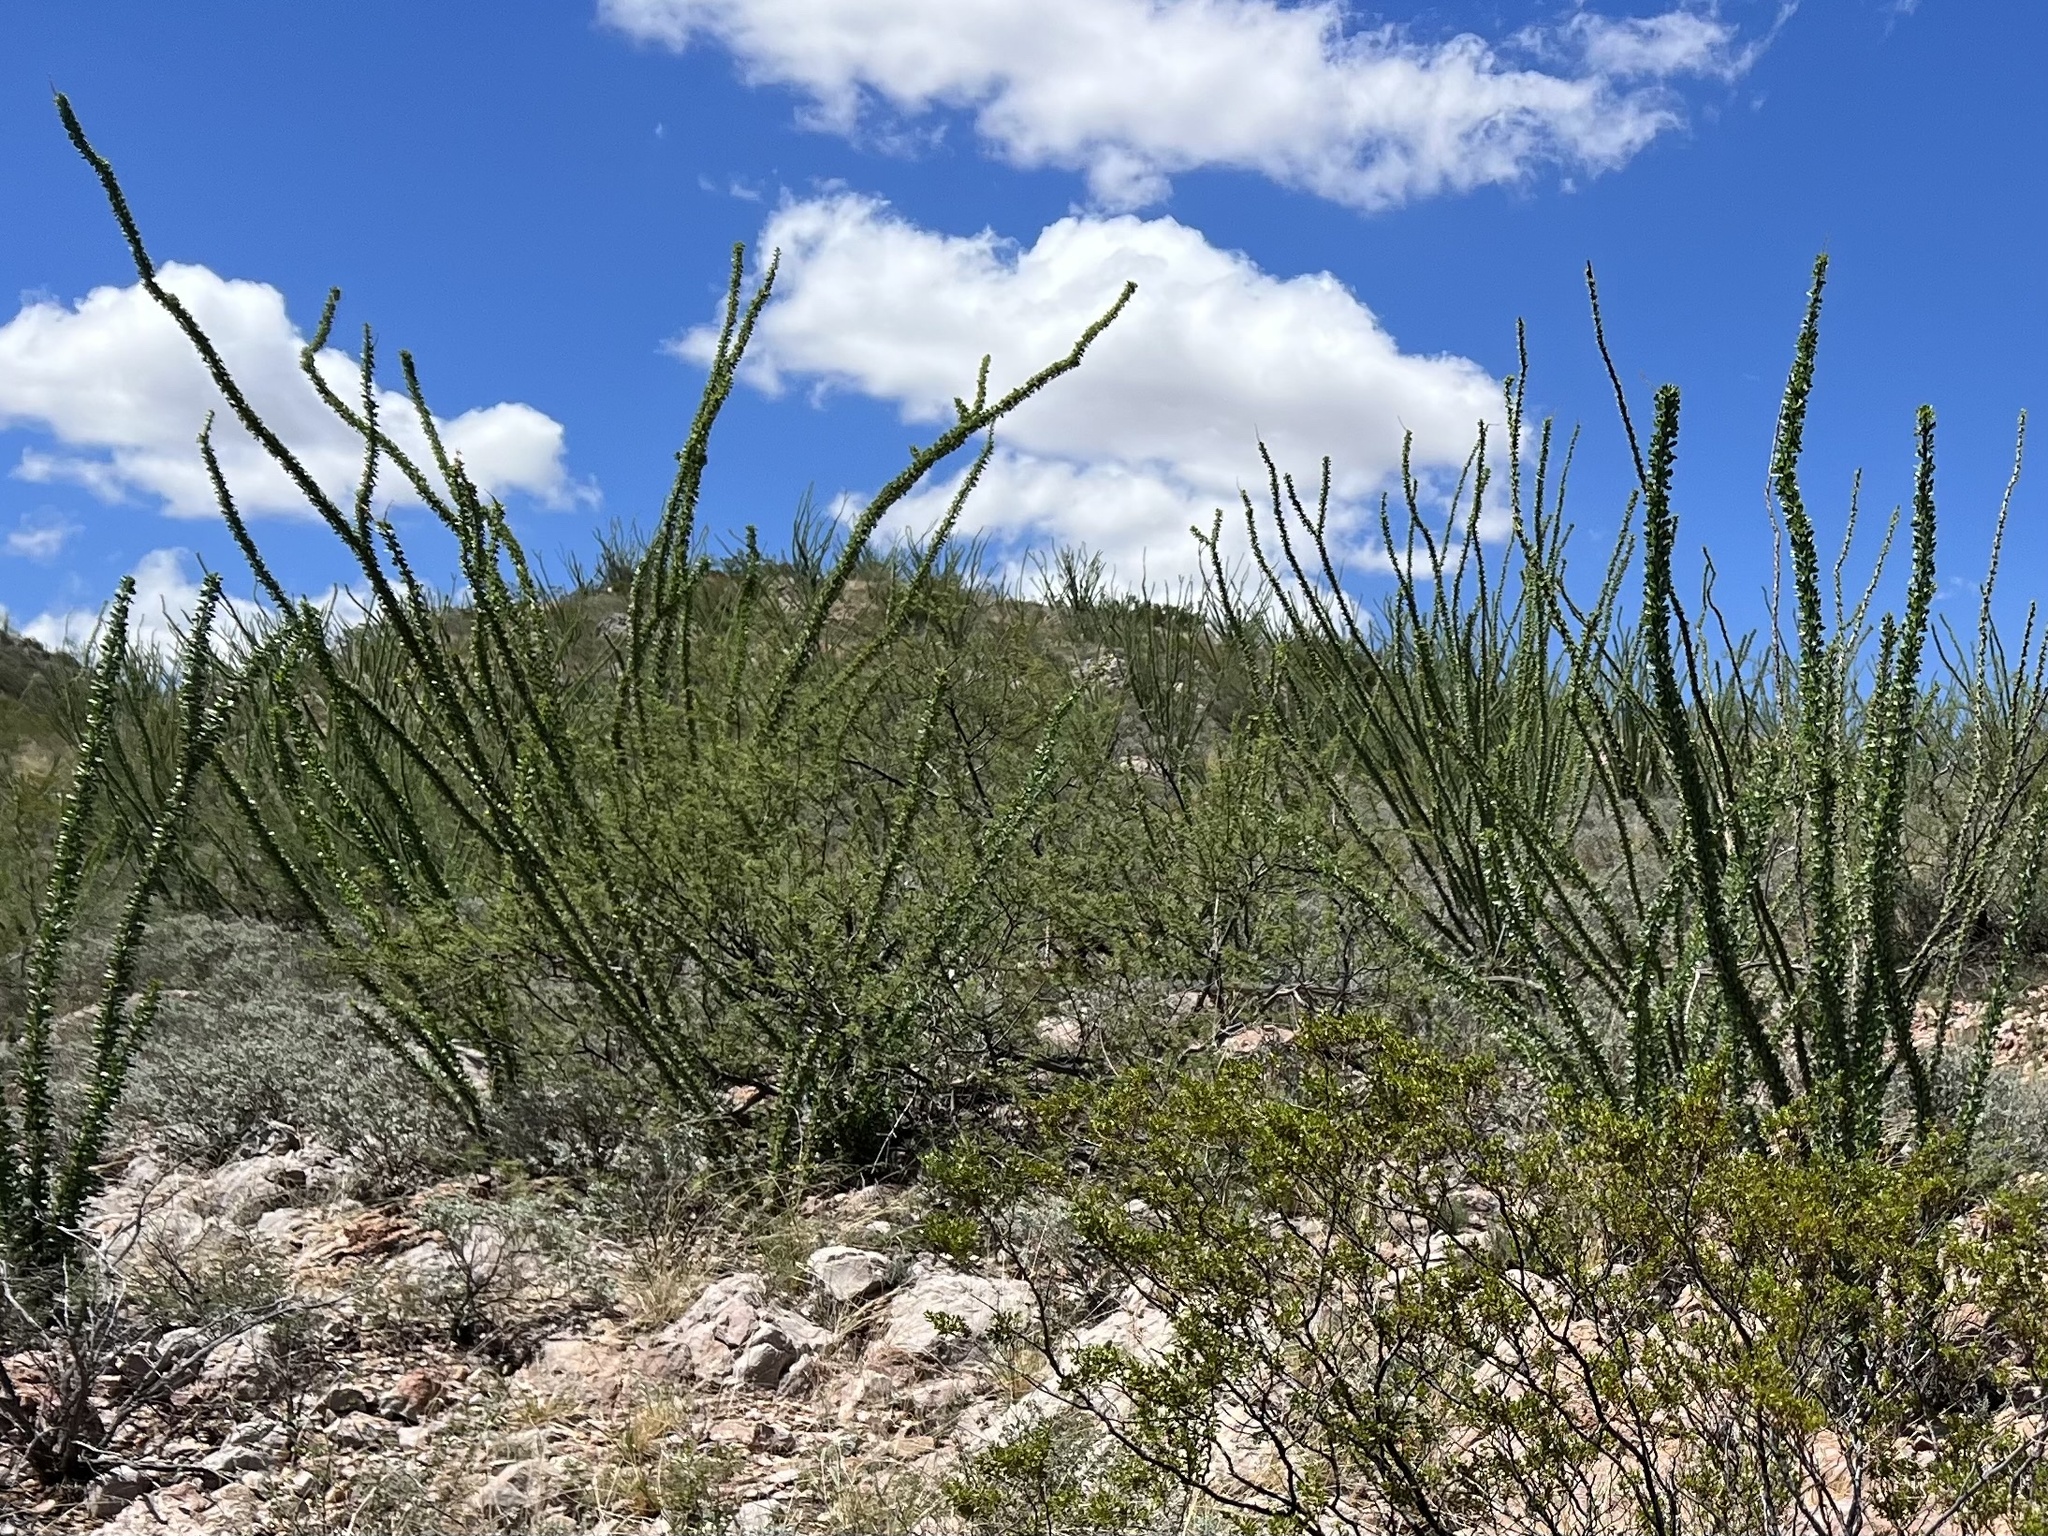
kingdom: Plantae
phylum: Tracheophyta
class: Magnoliopsida
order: Ericales
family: Fouquieriaceae
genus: Fouquieria
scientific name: Fouquieria splendens
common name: Vine-cactus
